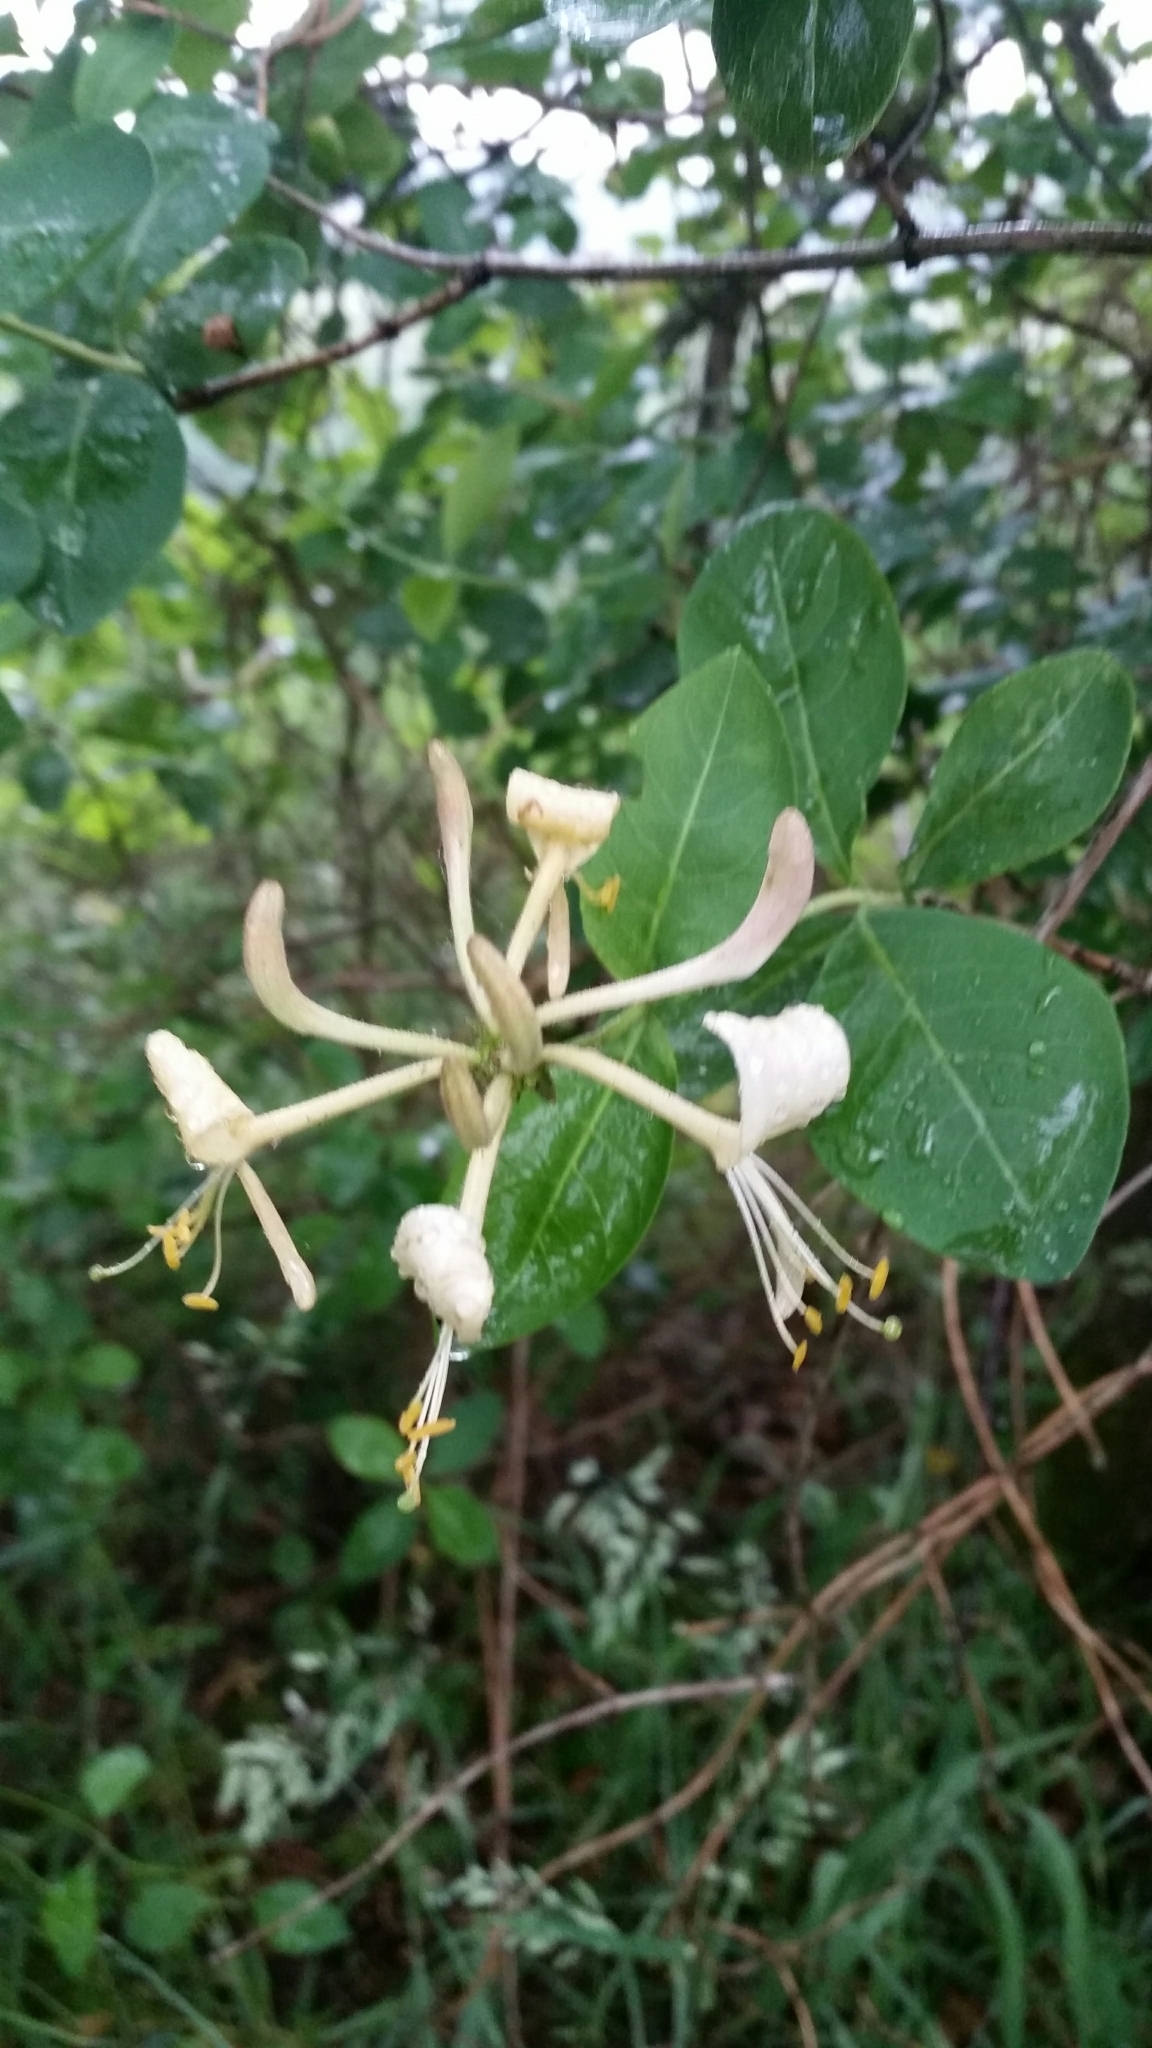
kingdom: Plantae
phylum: Tracheophyta
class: Magnoliopsida
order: Dipsacales
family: Caprifoliaceae
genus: Lonicera
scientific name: Lonicera periclymenum
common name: European honeysuckle
